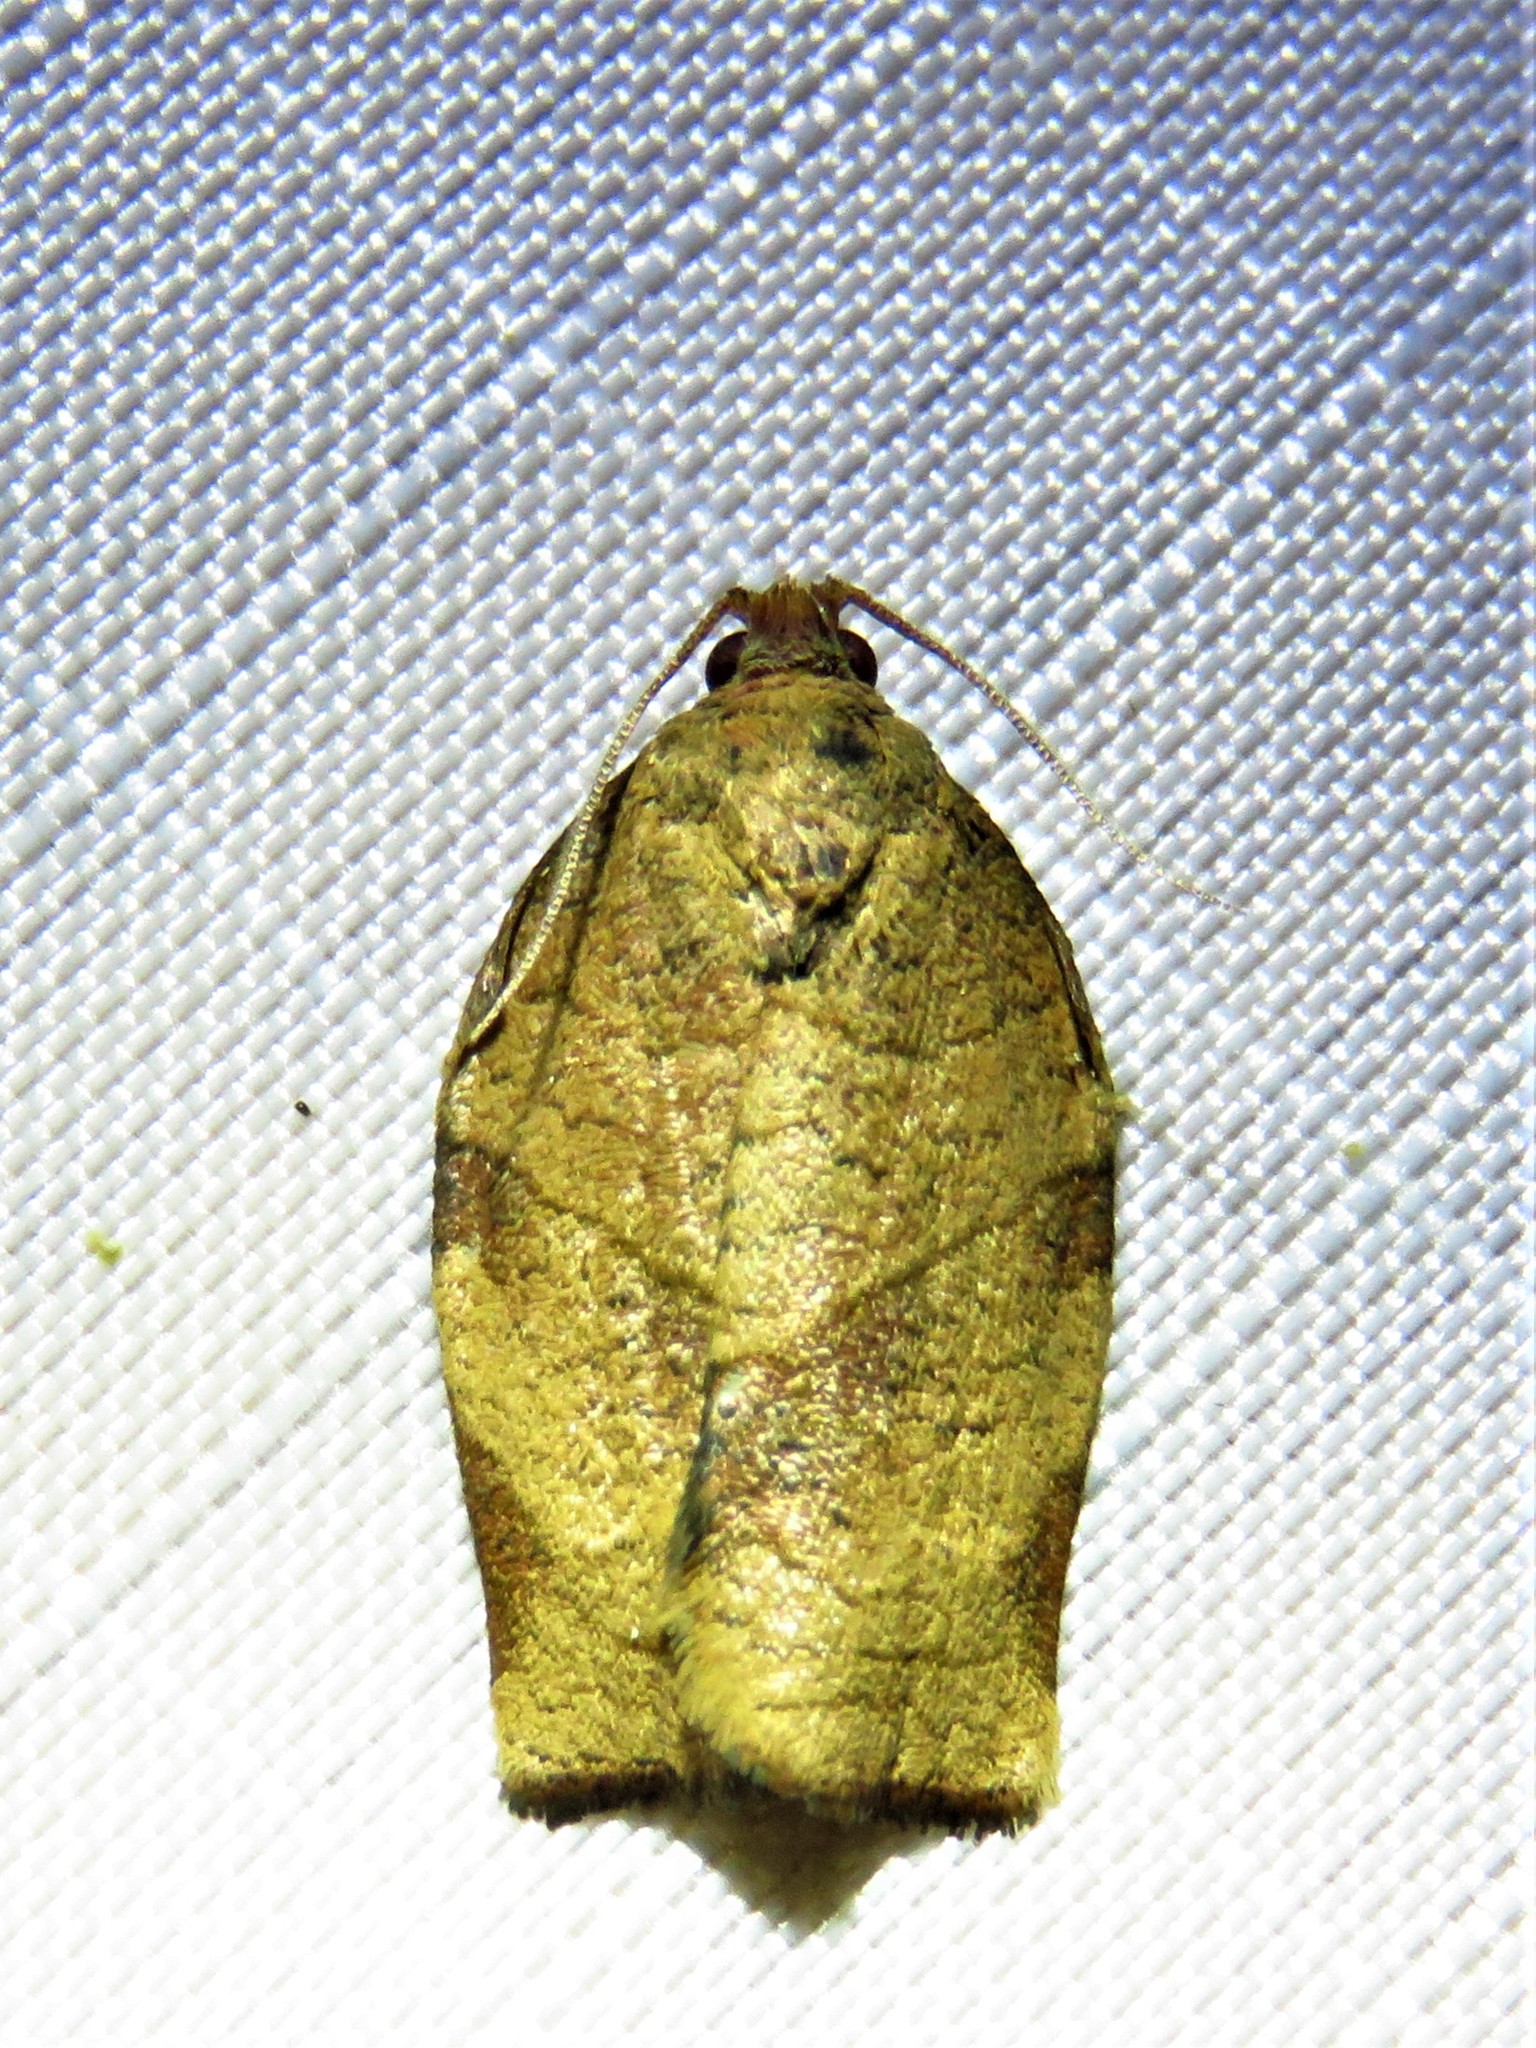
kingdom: Animalia
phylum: Arthropoda
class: Insecta
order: Lepidoptera
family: Tortricidae
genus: Choristoneura
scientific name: Choristoneura rosaceana
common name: Oblique-banded leafroller moth
